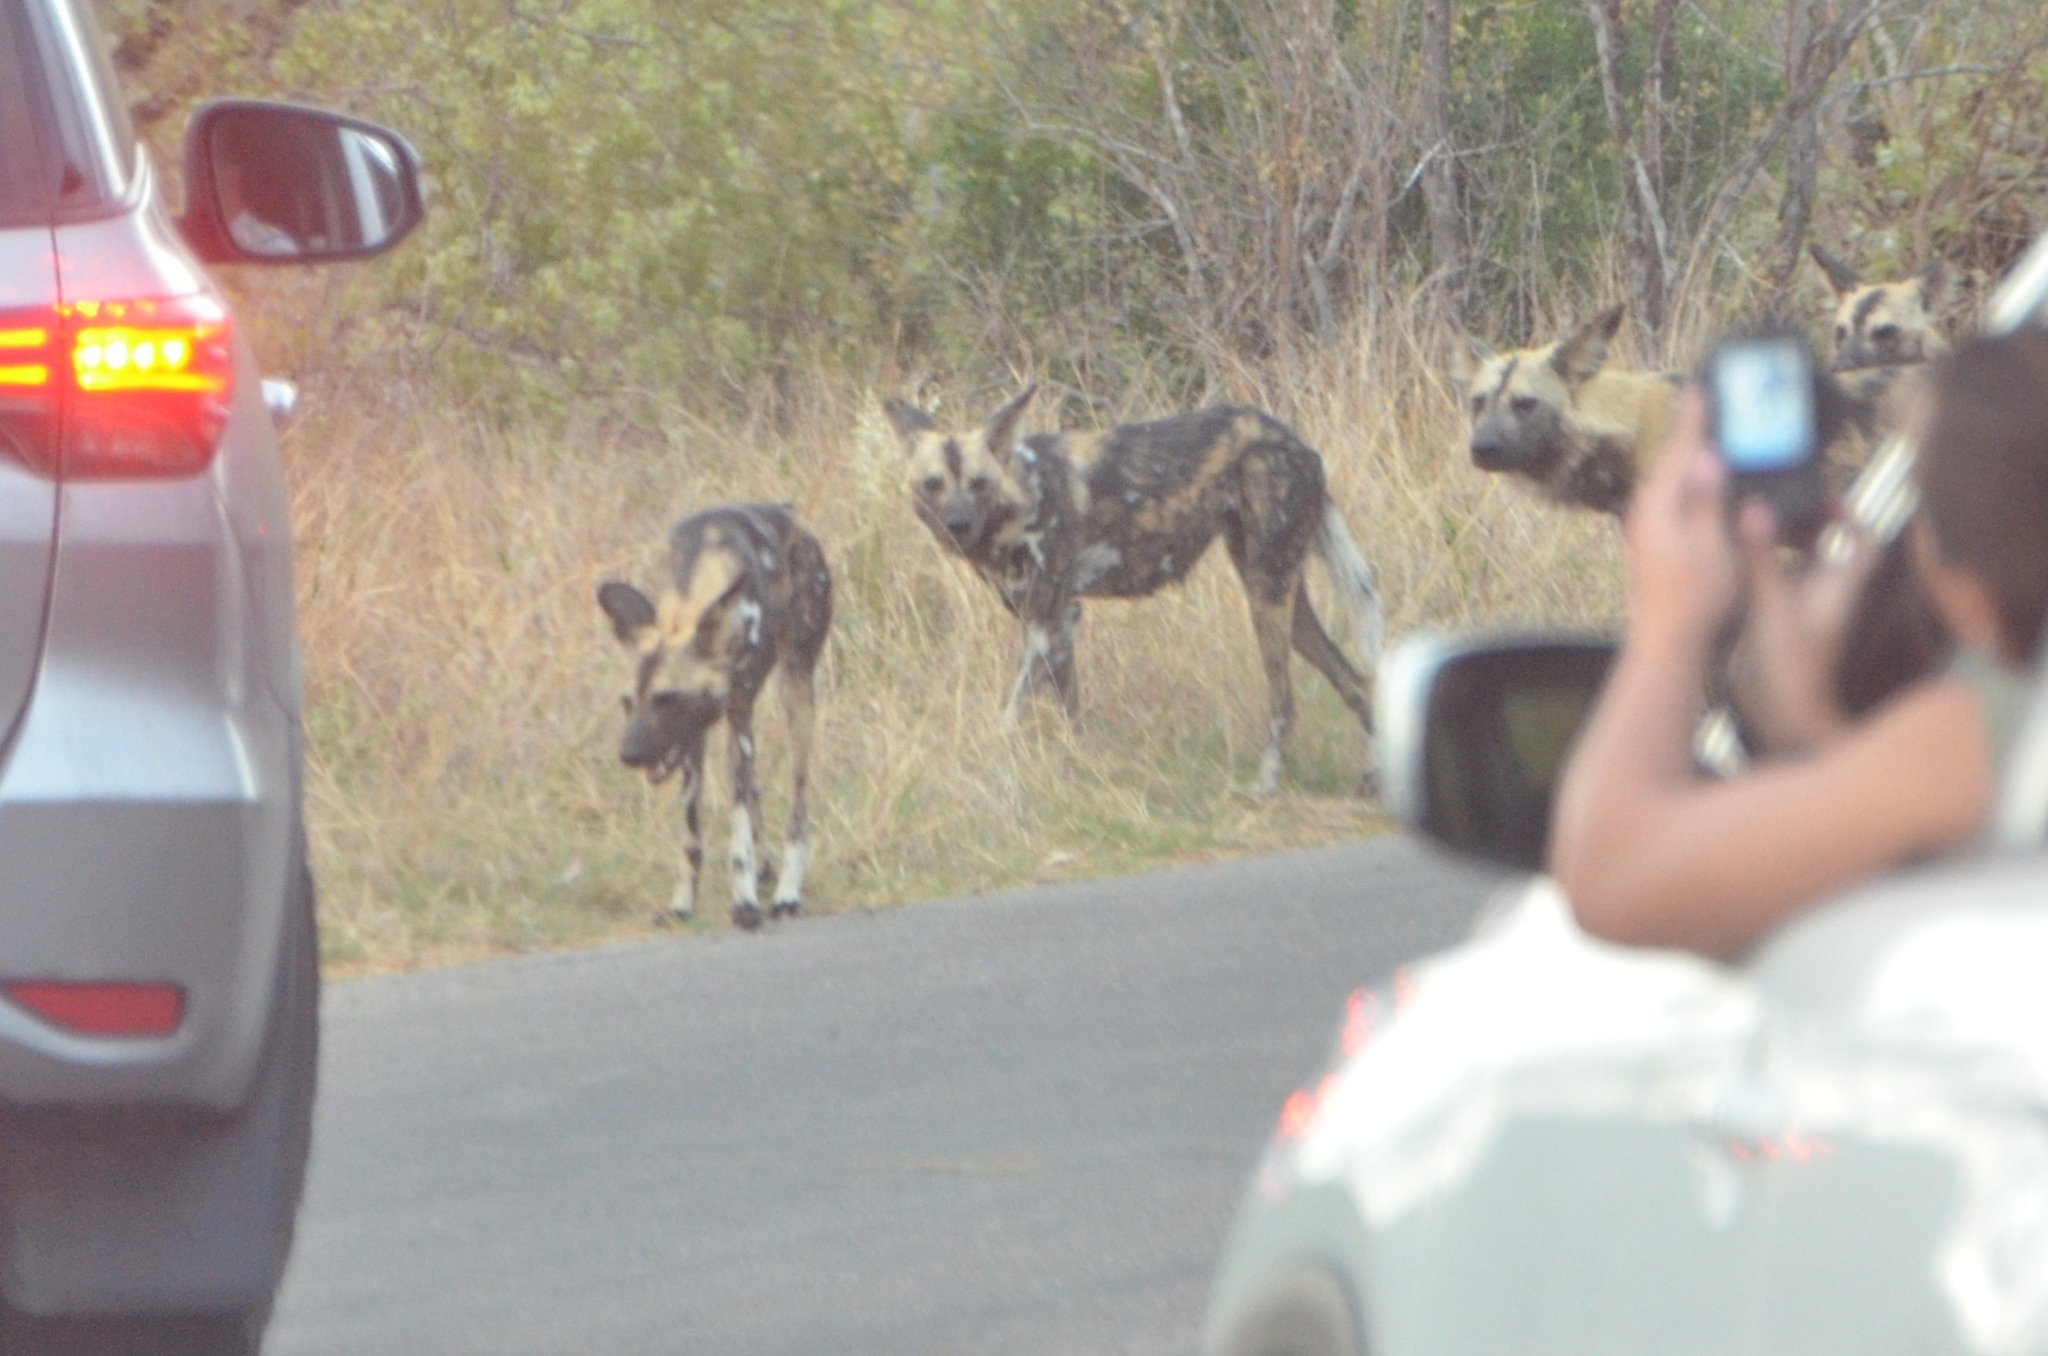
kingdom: Animalia
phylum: Chordata
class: Mammalia
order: Carnivora
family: Canidae
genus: Lycaon
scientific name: Lycaon pictus
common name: African wild dog
